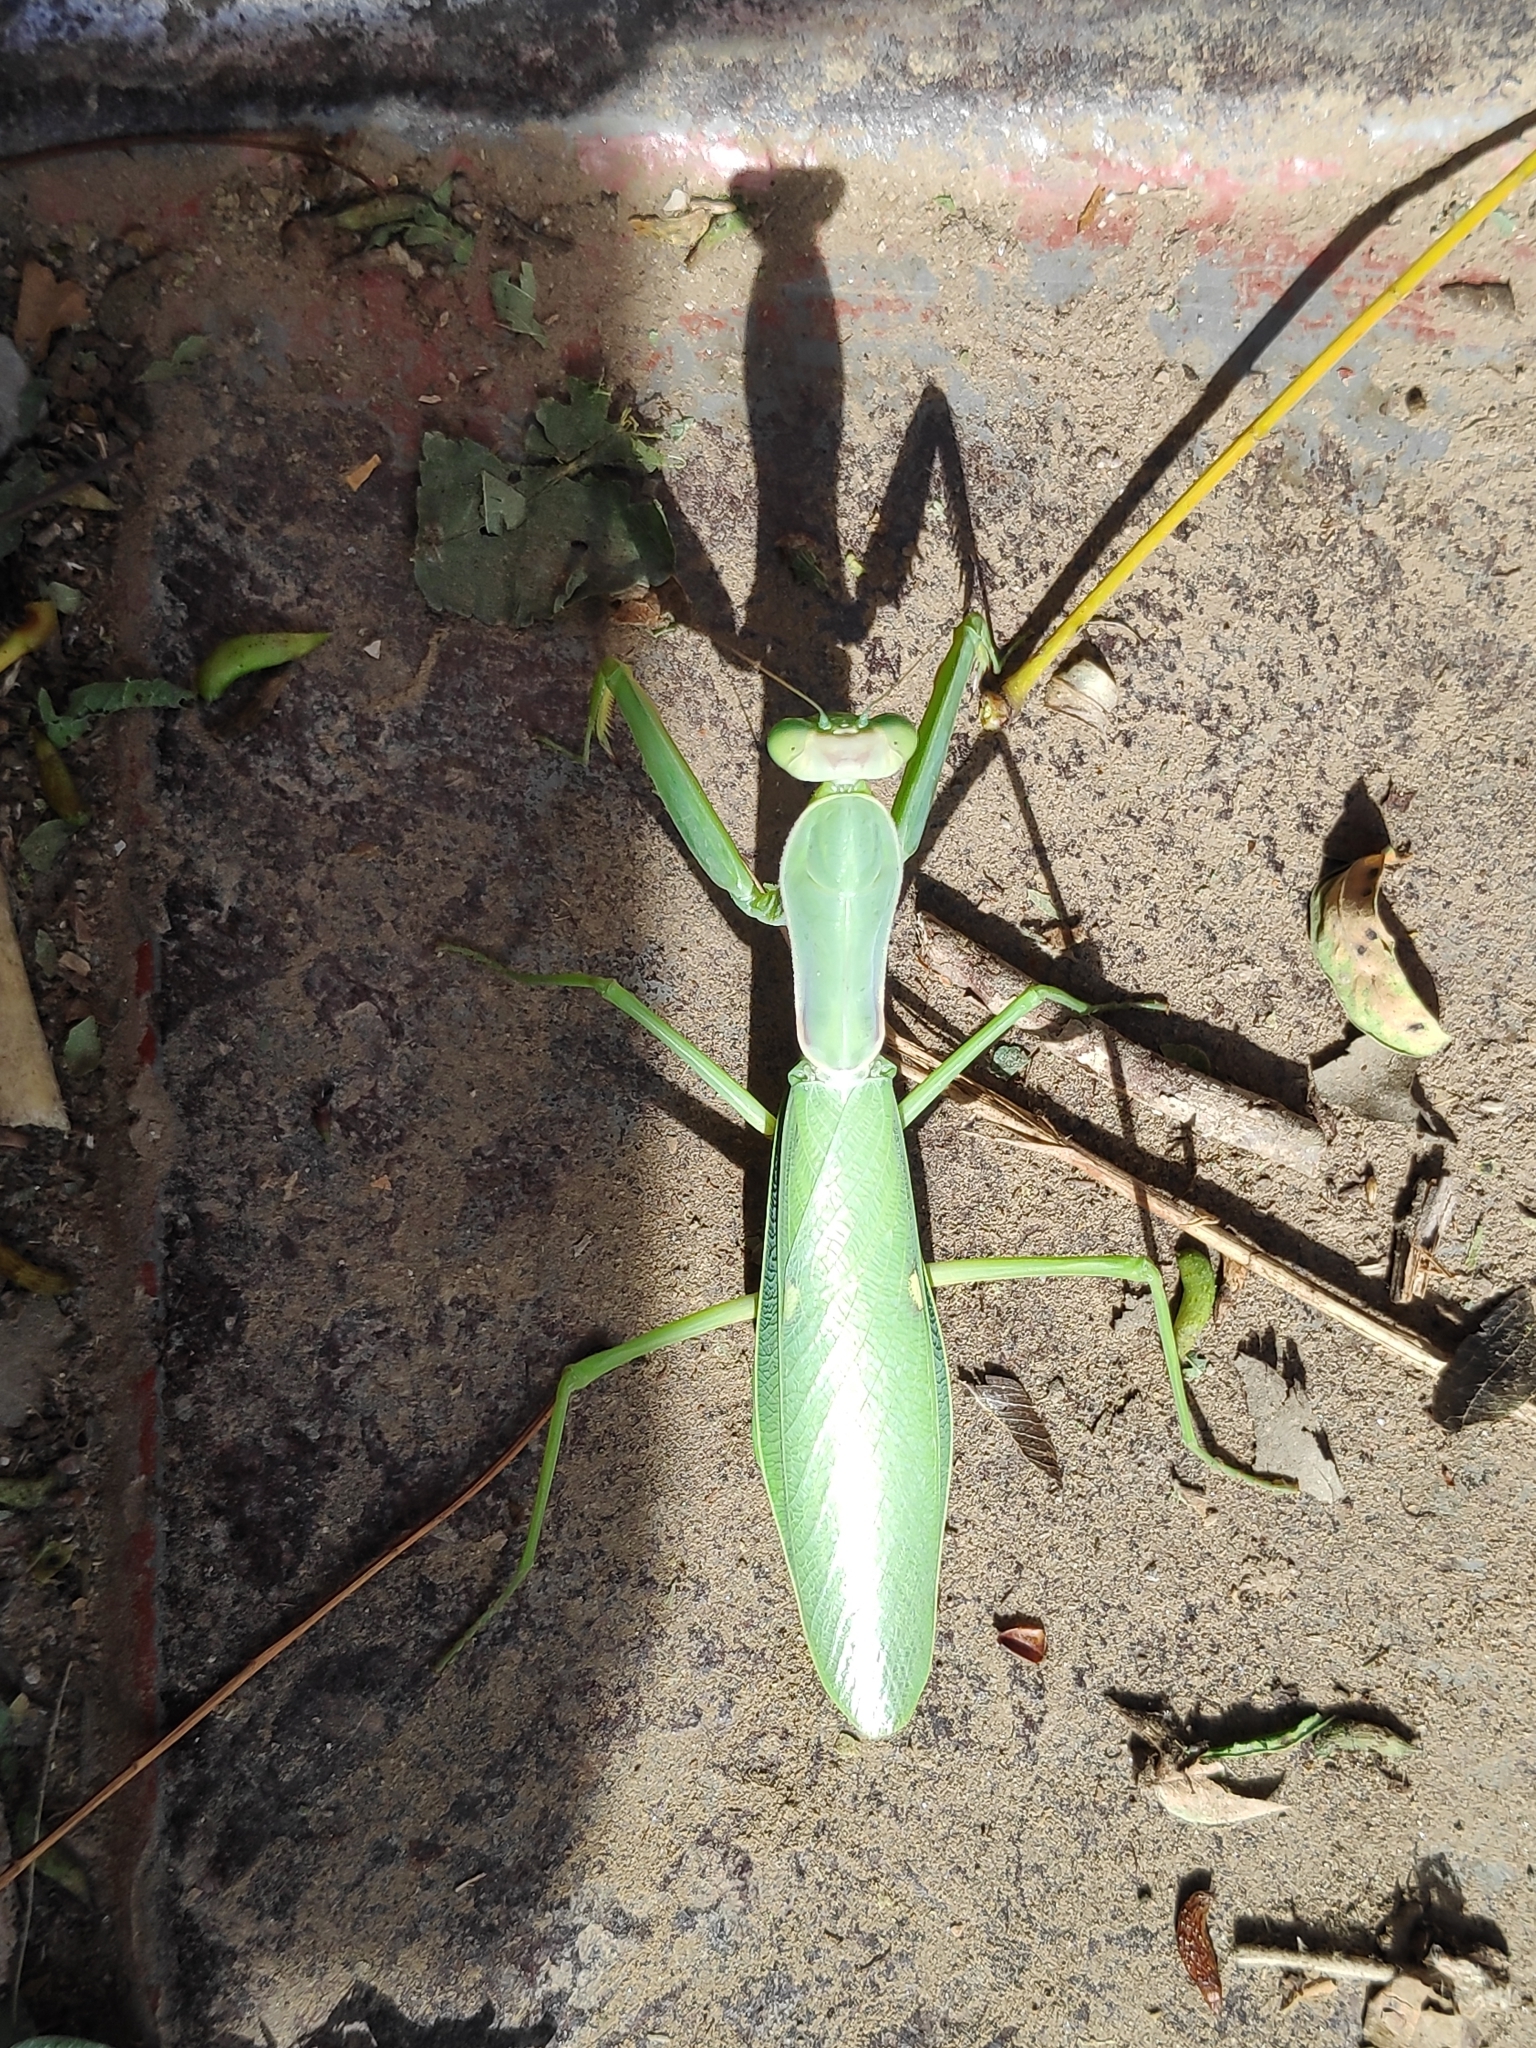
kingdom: Animalia
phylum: Arthropoda
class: Insecta
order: Mantodea
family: Mantidae
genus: Hierodula
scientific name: Hierodula transcaucasica
